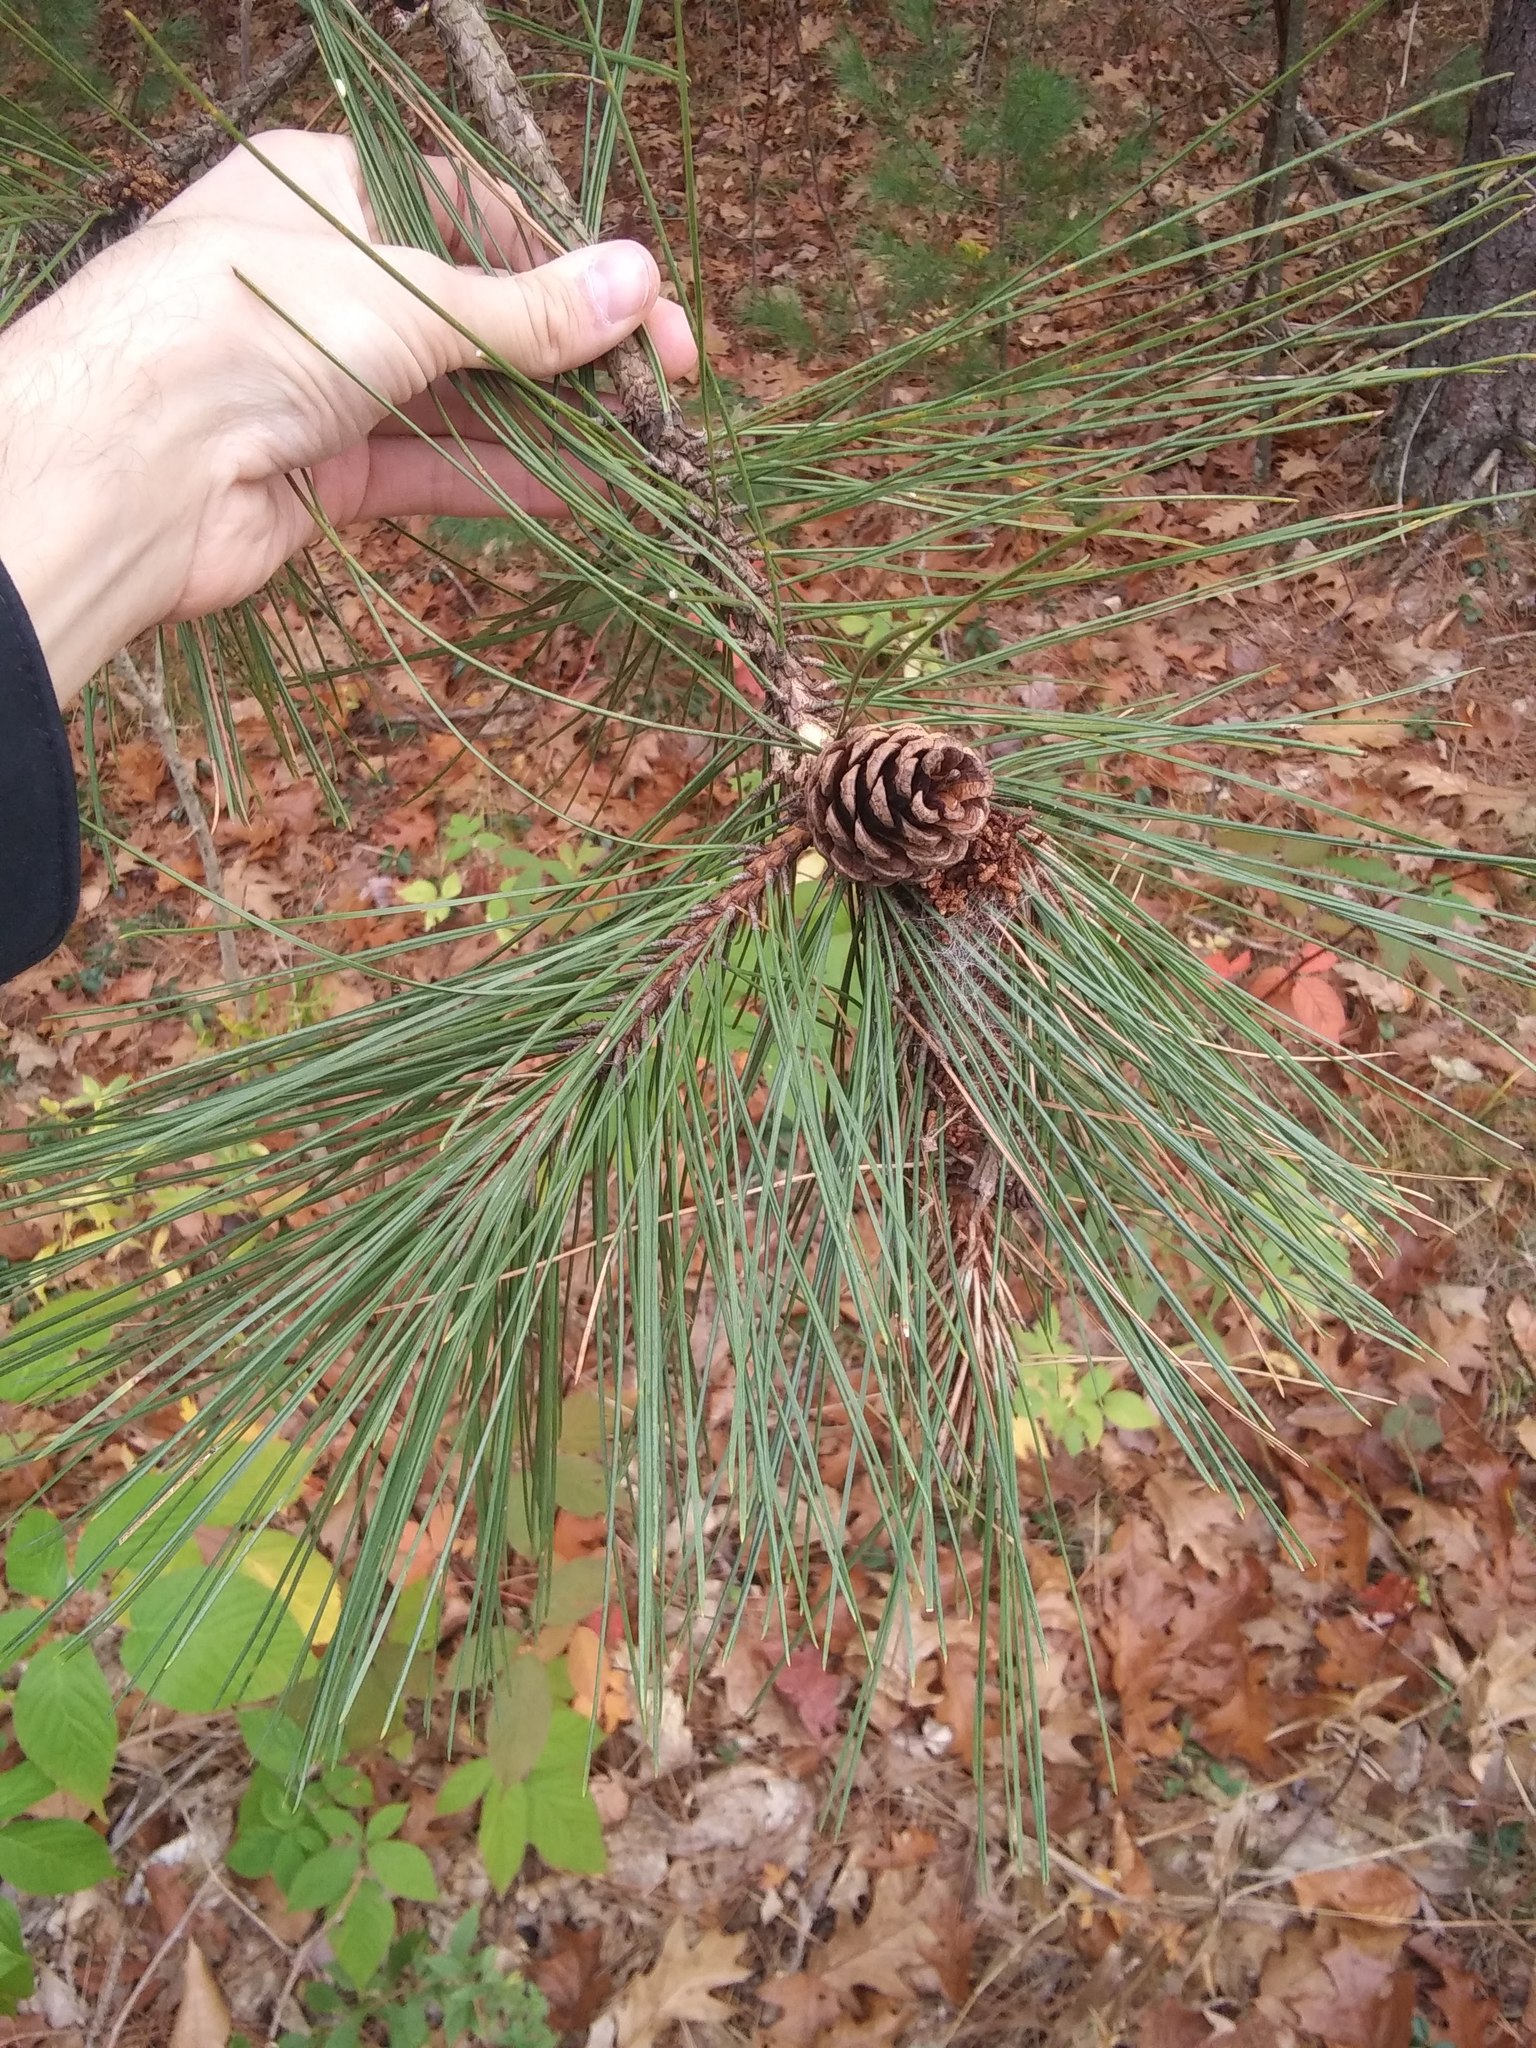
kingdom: Plantae
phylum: Tracheophyta
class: Pinopsida
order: Pinales
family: Pinaceae
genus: Pinus
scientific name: Pinus resinosa
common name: Norway pine
